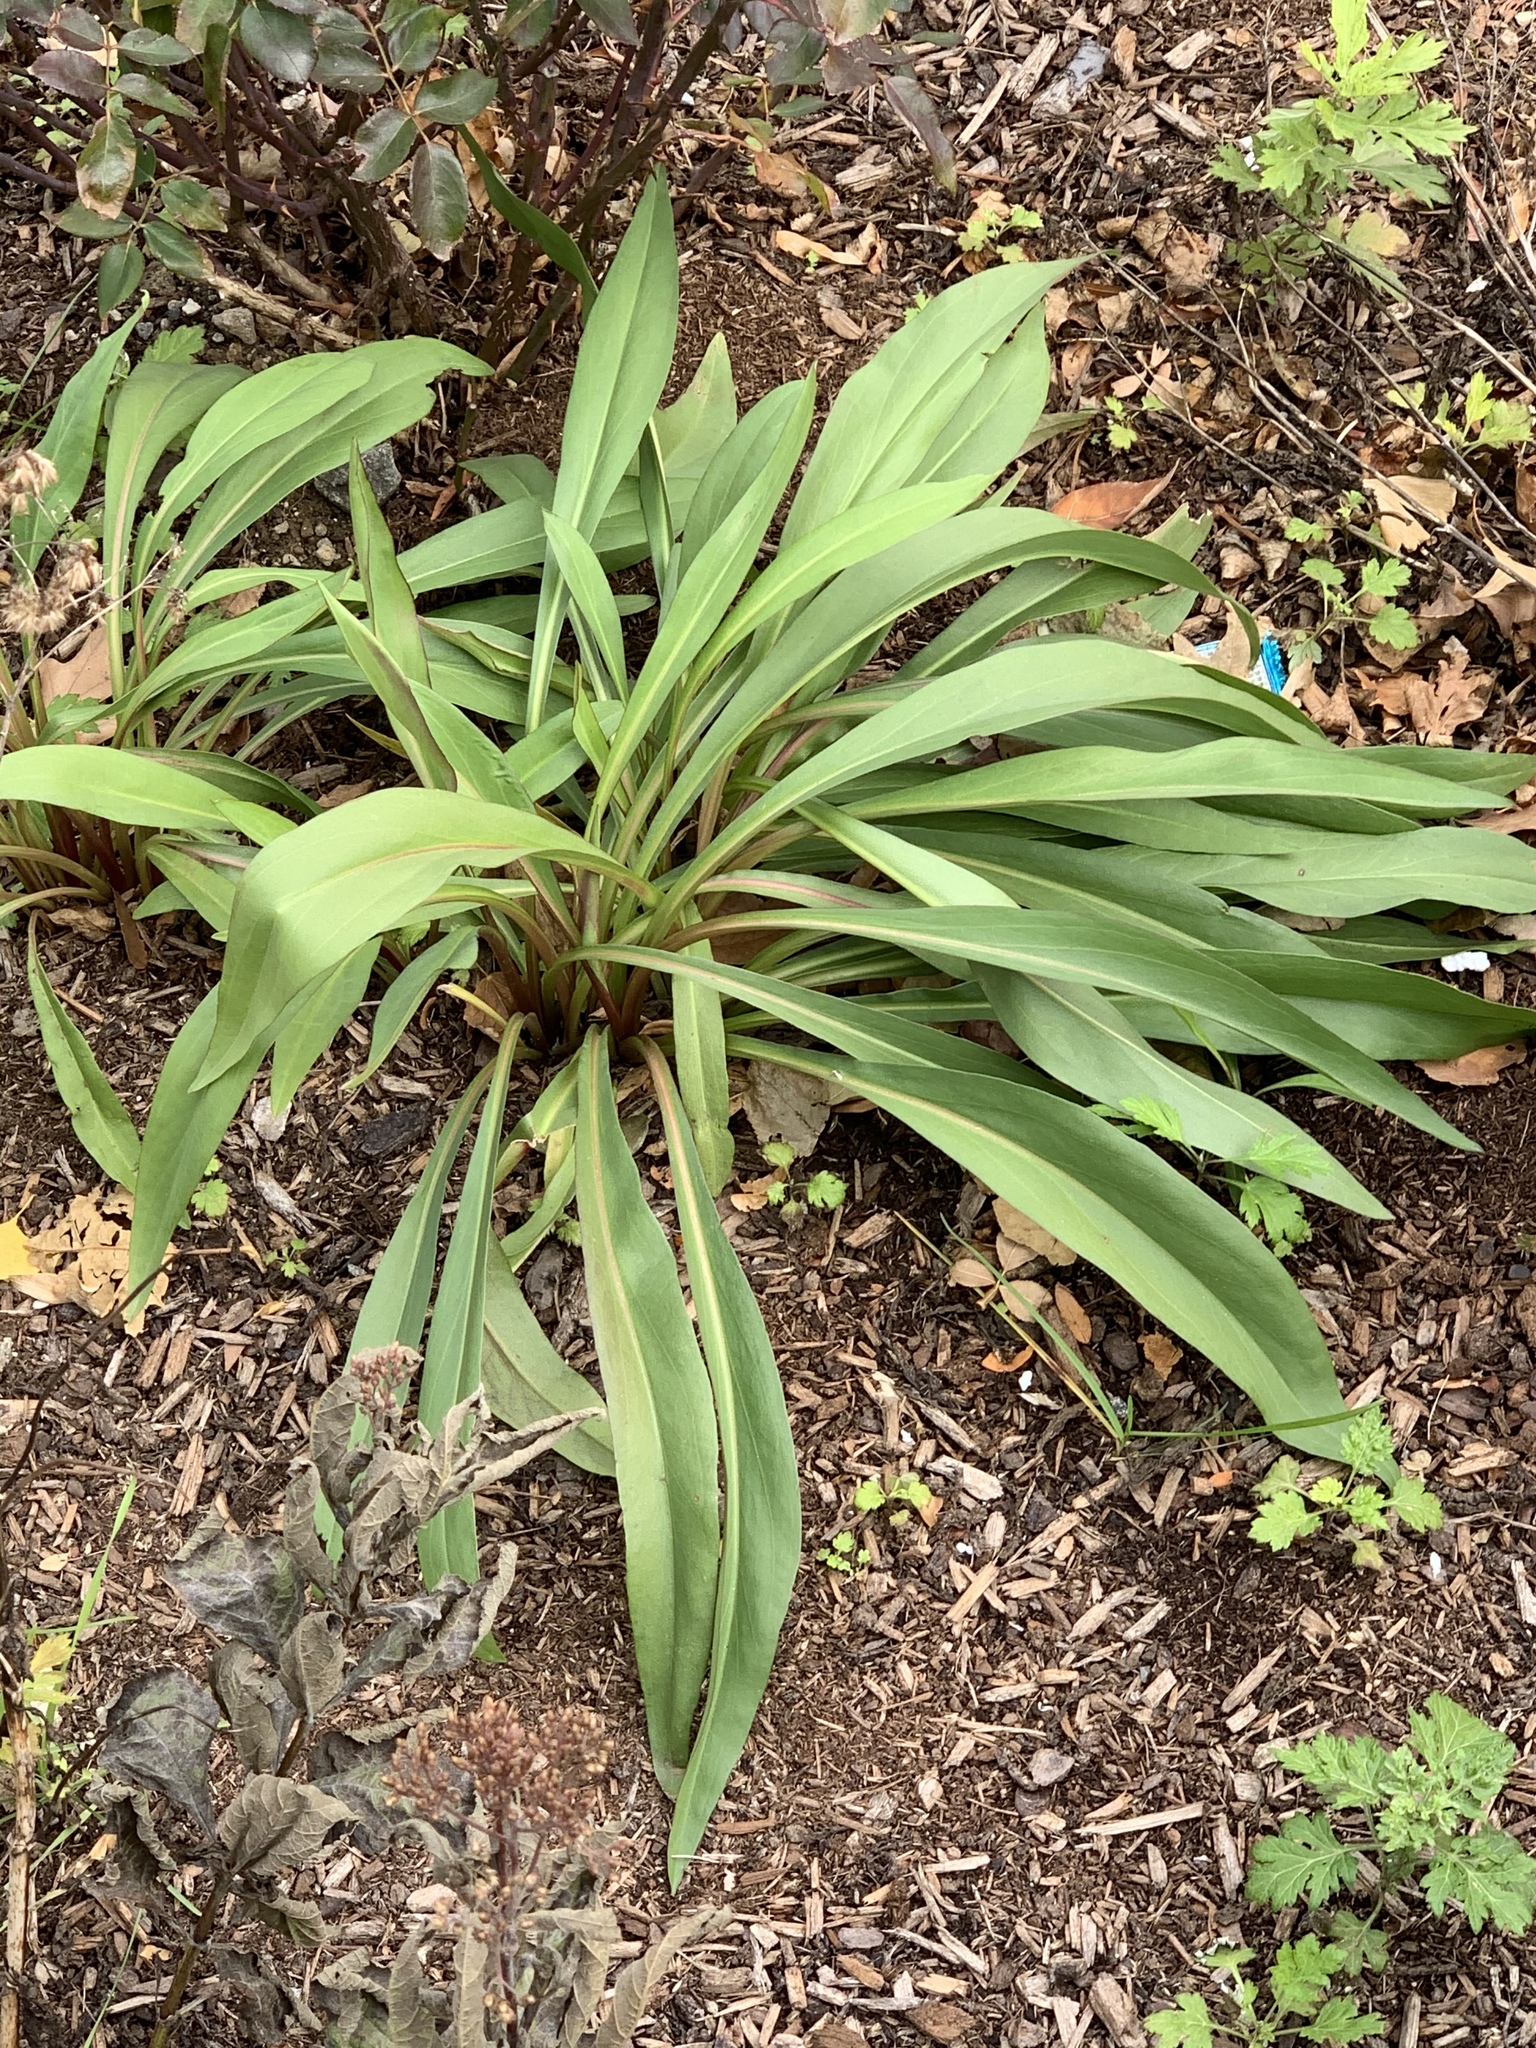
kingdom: Plantae
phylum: Tracheophyta
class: Magnoliopsida
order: Asterales
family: Asteraceae
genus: Solidago
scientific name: Solidago sempervirens
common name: Salt-marsh goldenrod
